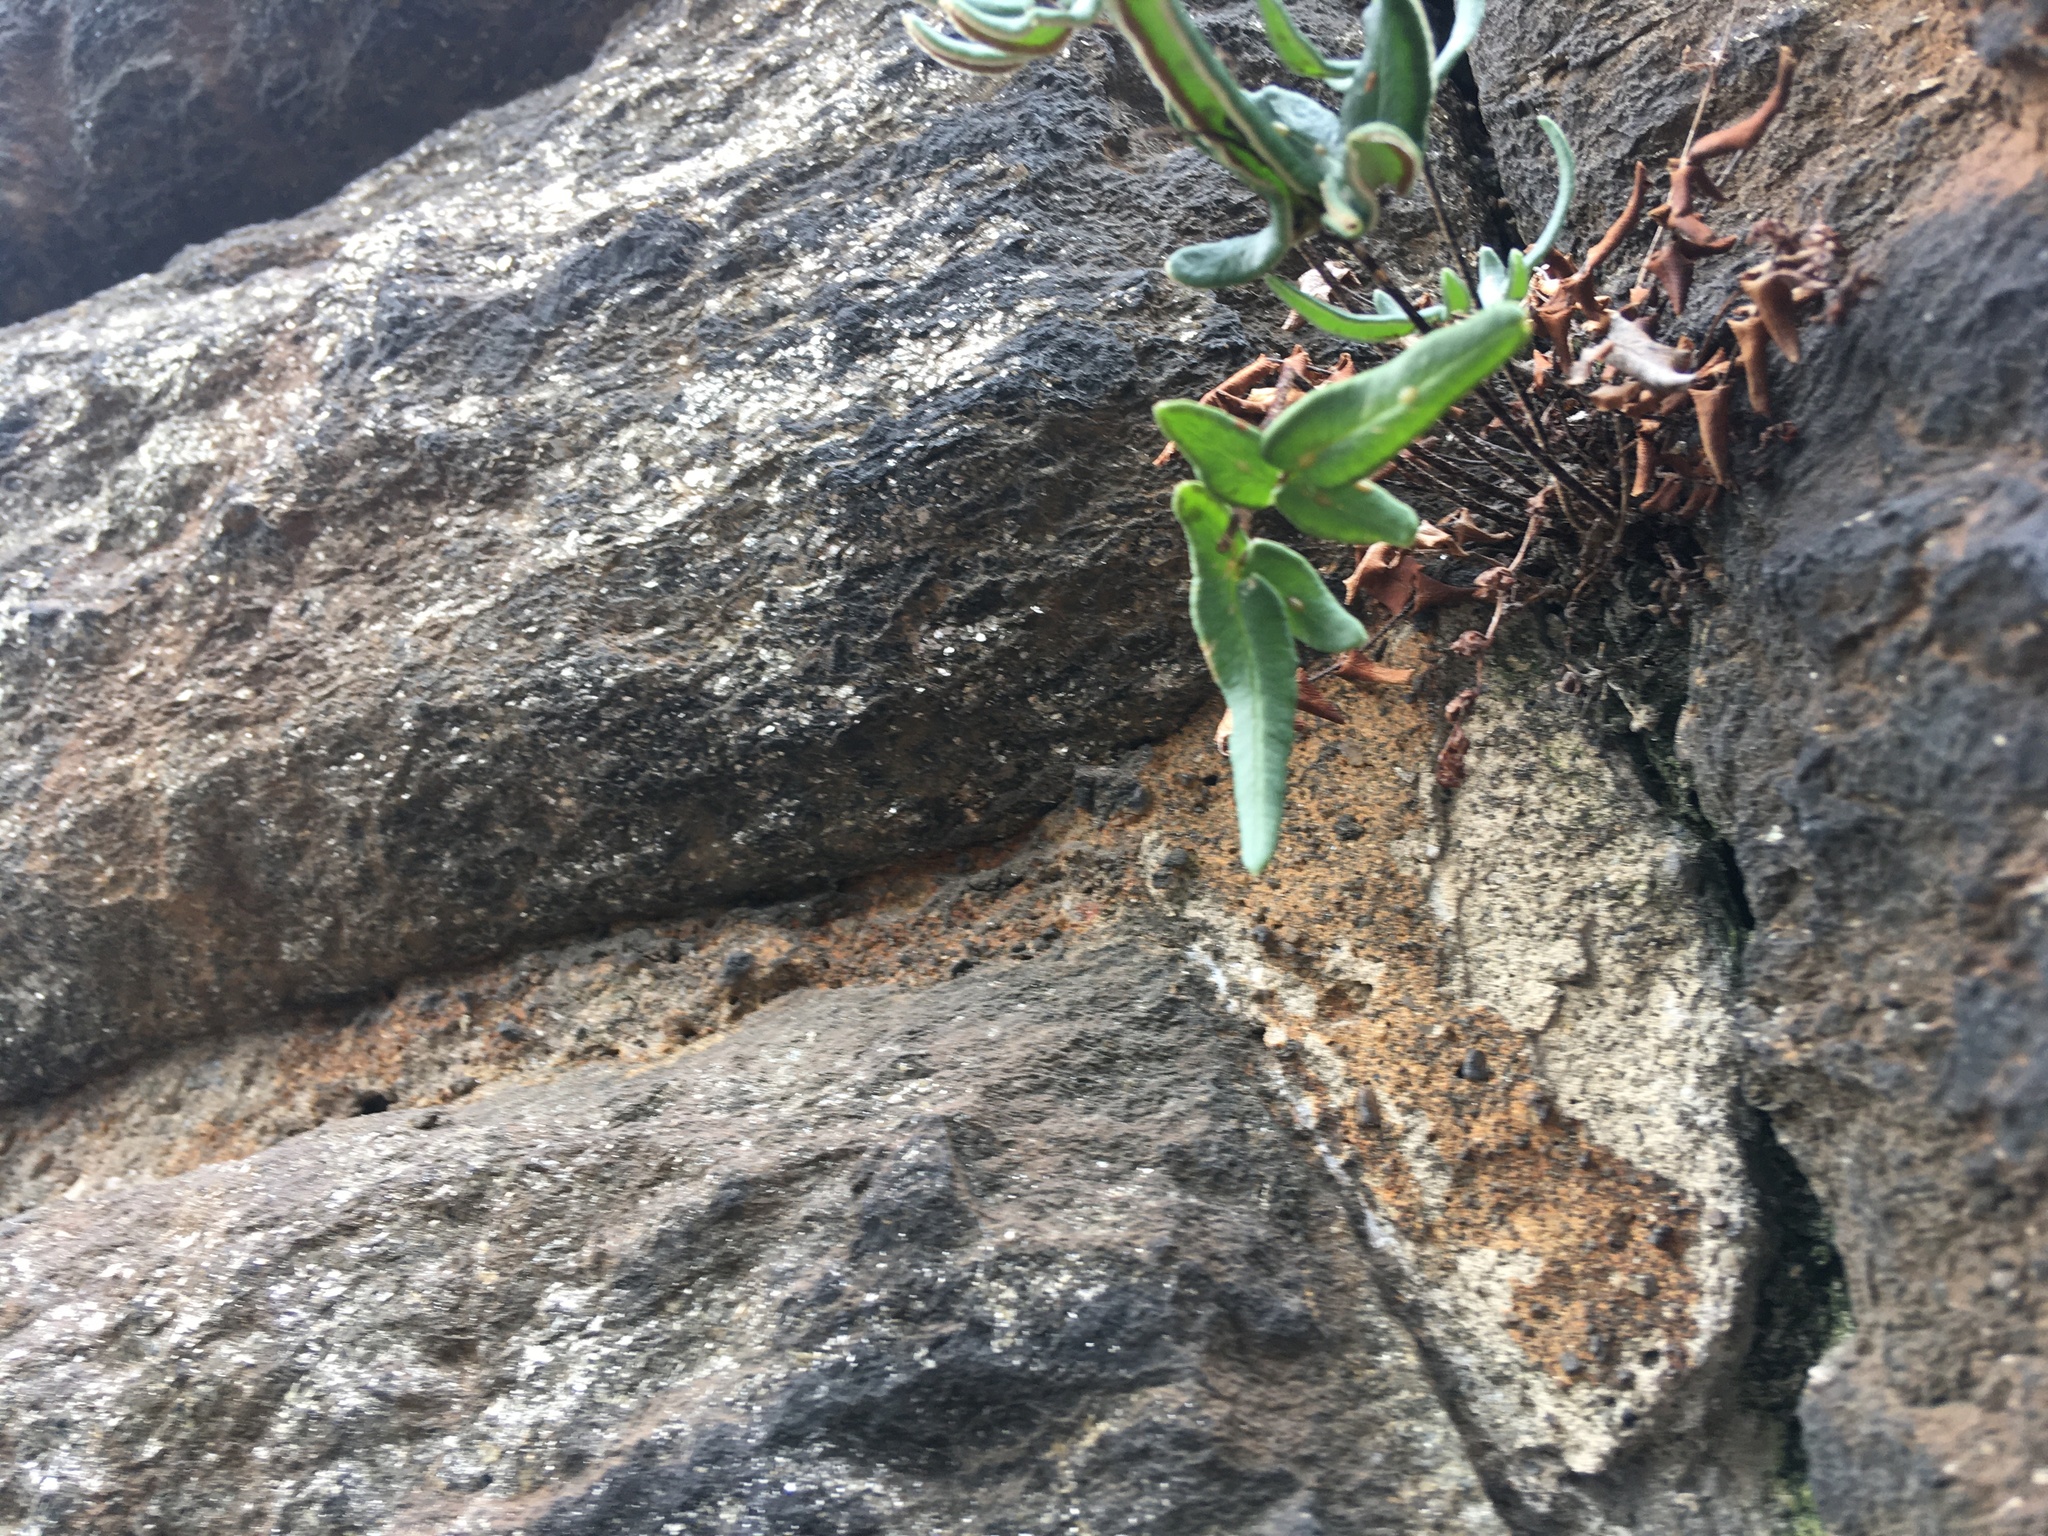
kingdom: Plantae
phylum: Tracheophyta
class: Polypodiopsida
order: Polypodiales
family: Pteridaceae
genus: Pellaea
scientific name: Pellaea atropurpurea
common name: Hairy cliffbrake
